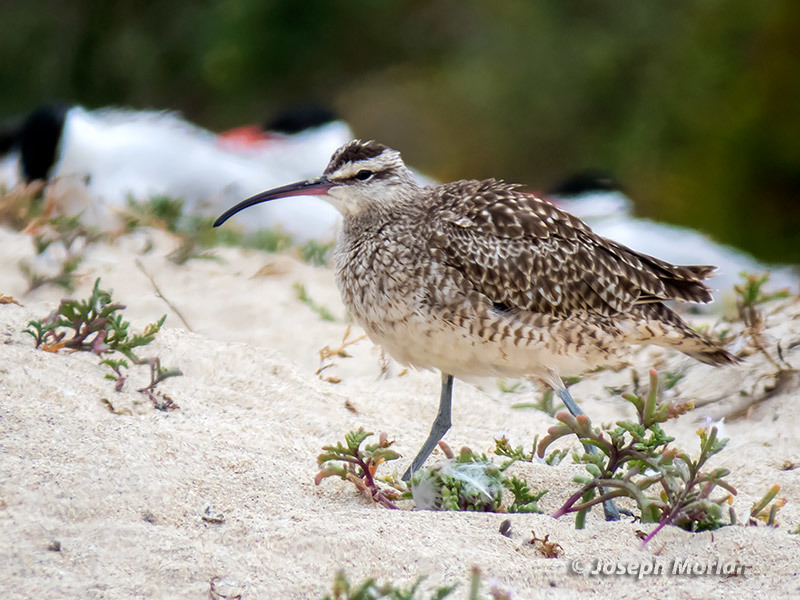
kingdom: Animalia
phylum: Chordata
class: Aves
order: Charadriiformes
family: Scolopacidae
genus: Numenius
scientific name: Numenius phaeopus
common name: Whimbrel
